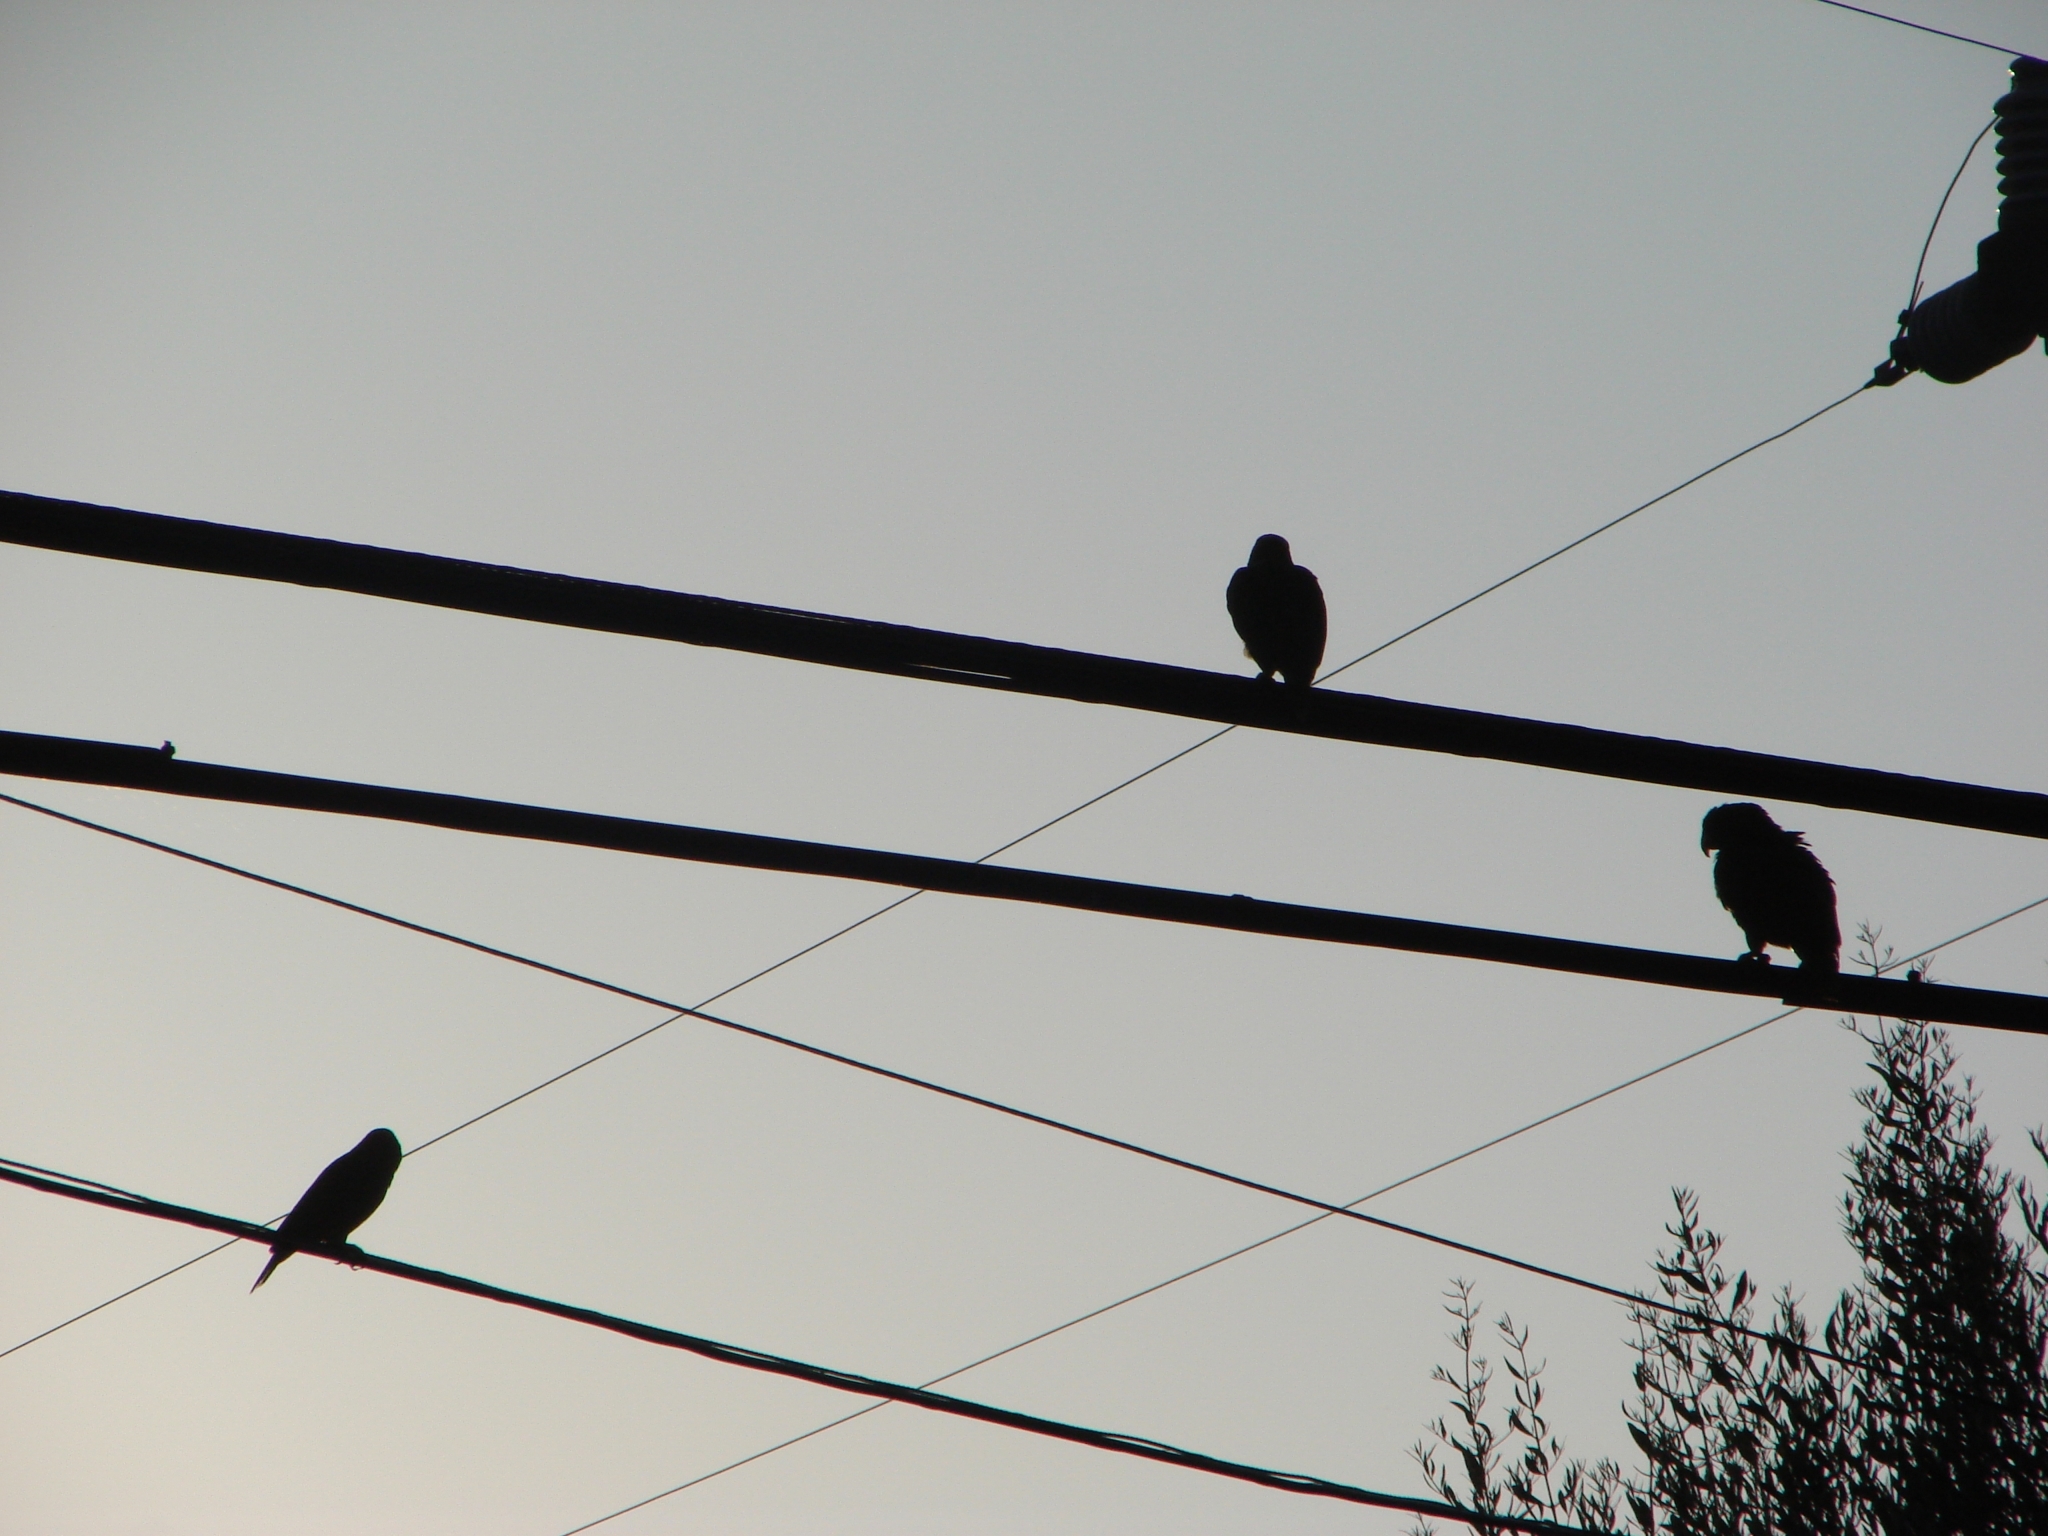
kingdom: Animalia
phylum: Chordata
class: Aves
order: Psittaciformes
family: Psittacidae
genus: Amazona
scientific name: Amazona
